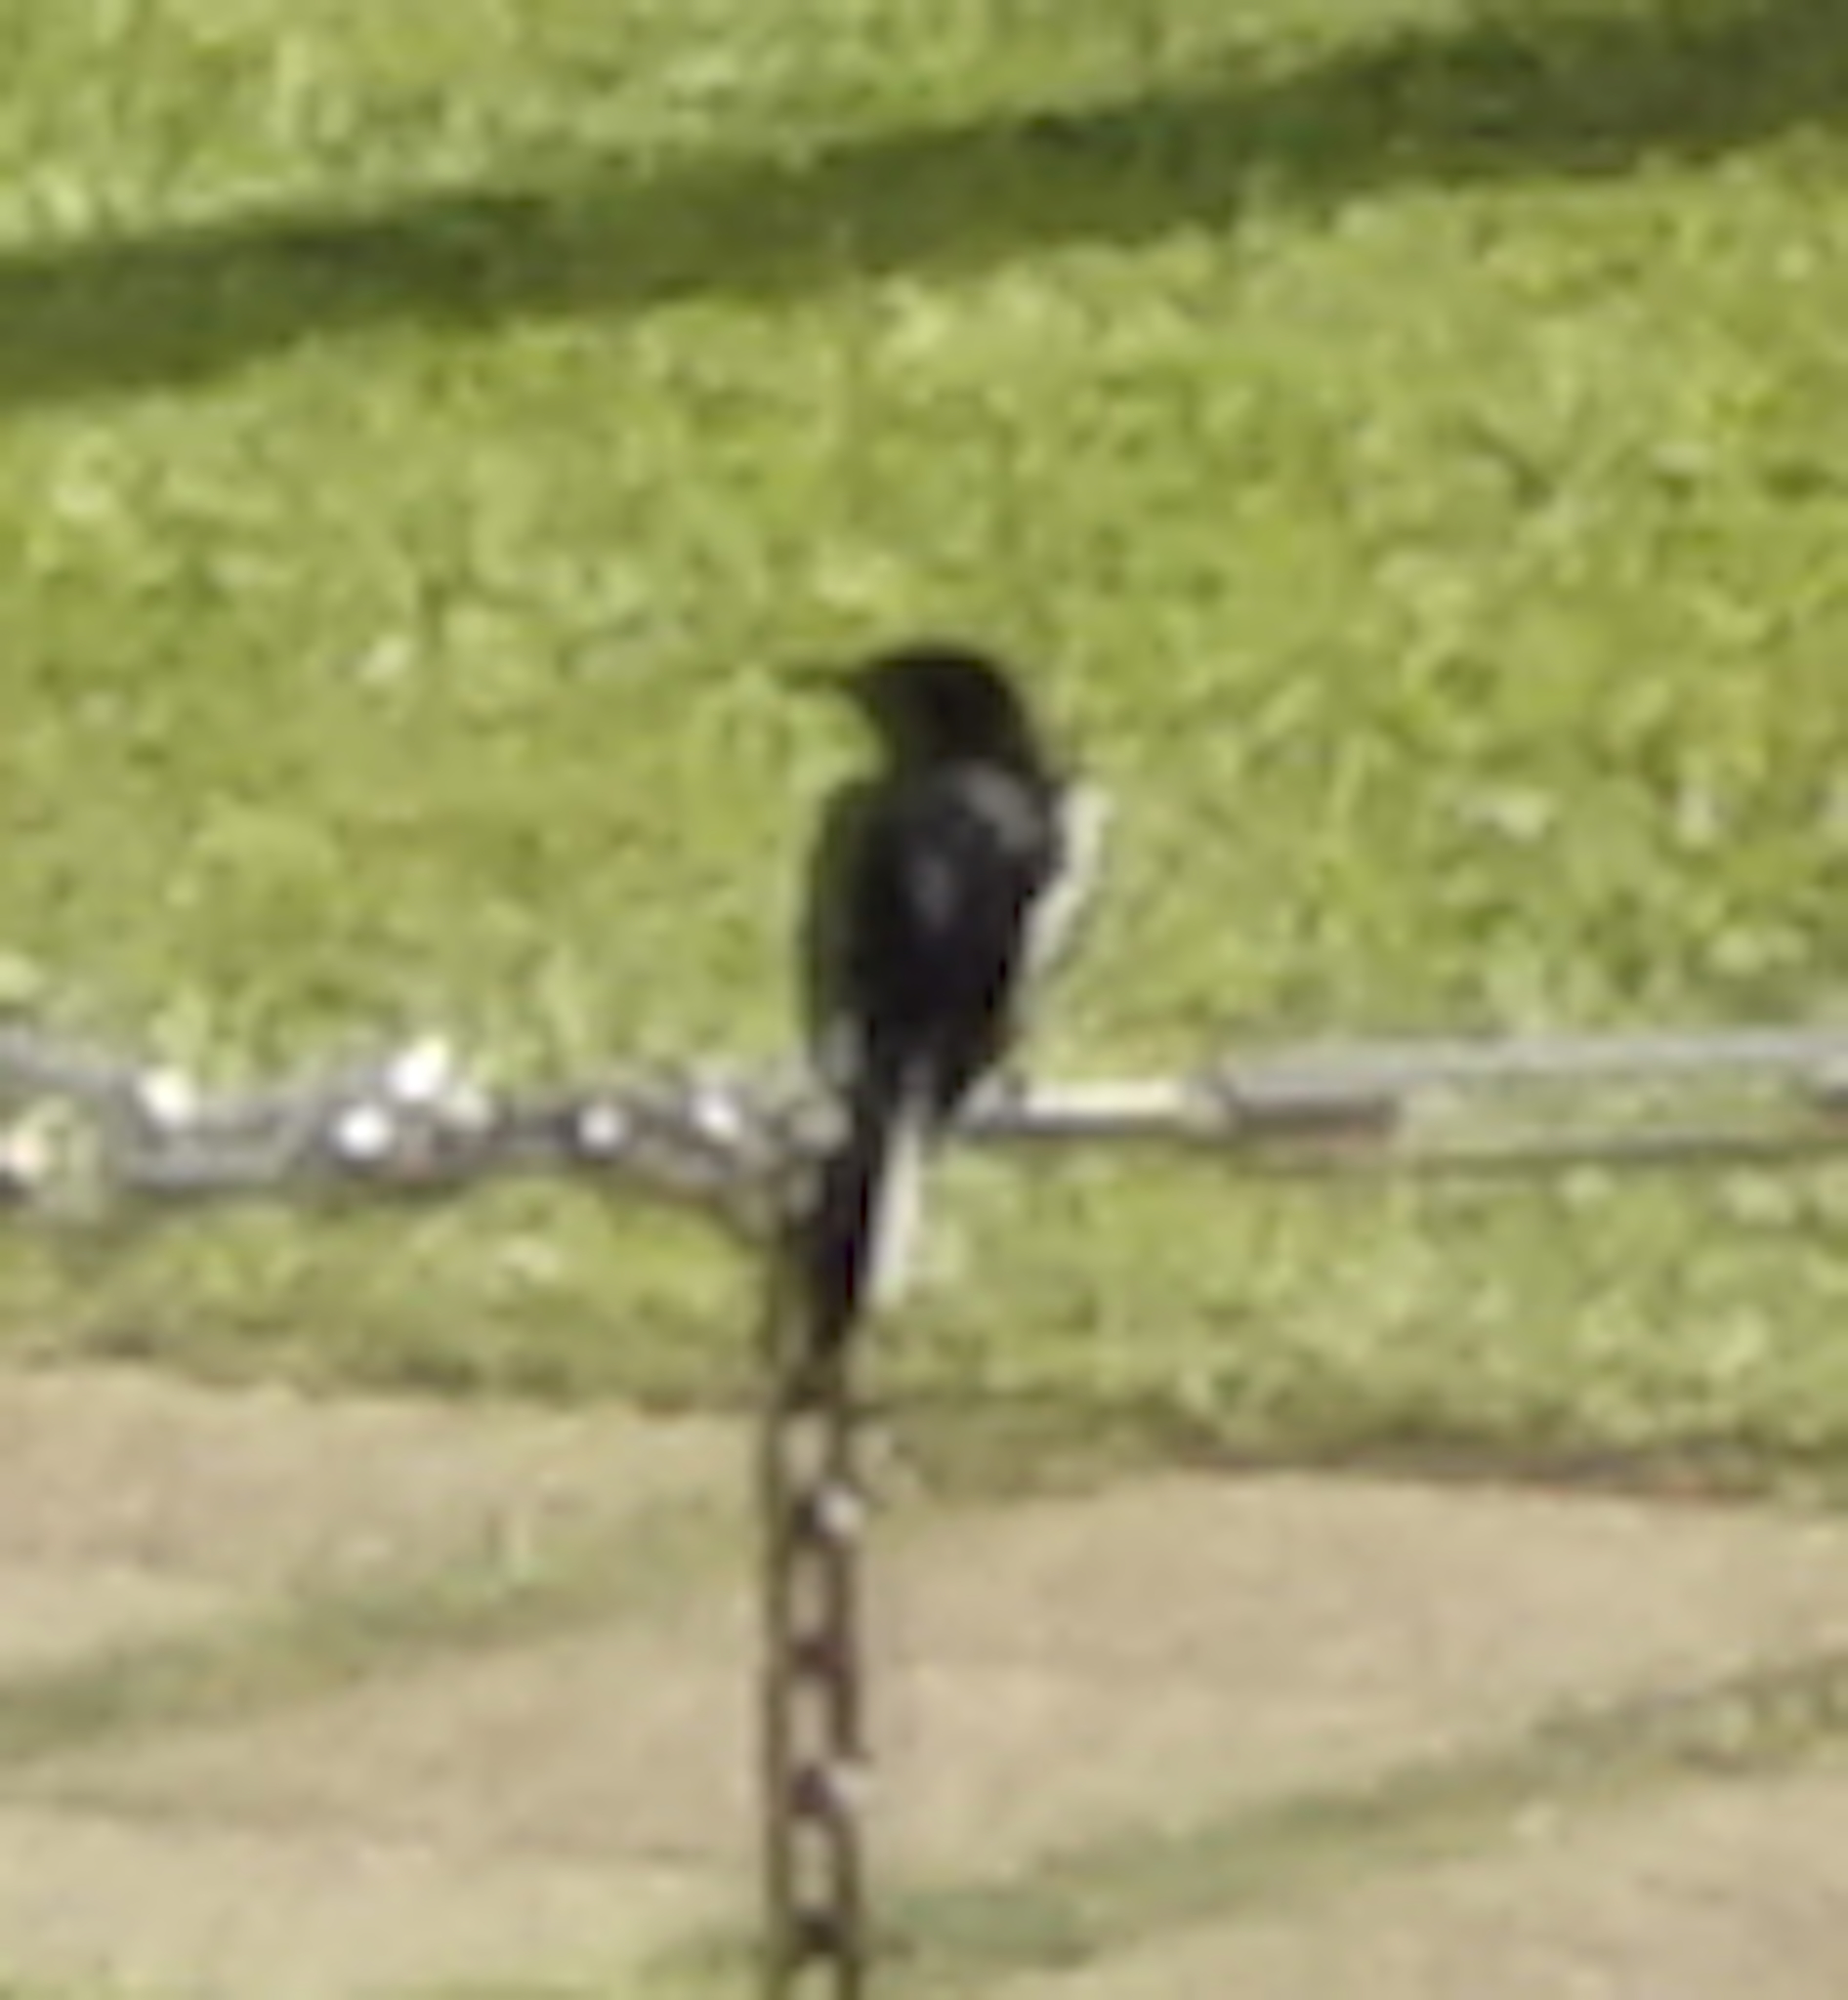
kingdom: Animalia
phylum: Chordata
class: Aves
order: Passeriformes
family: Muscicapidae
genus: Copsychus
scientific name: Copsychus saularis
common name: Oriental magpie-robin
